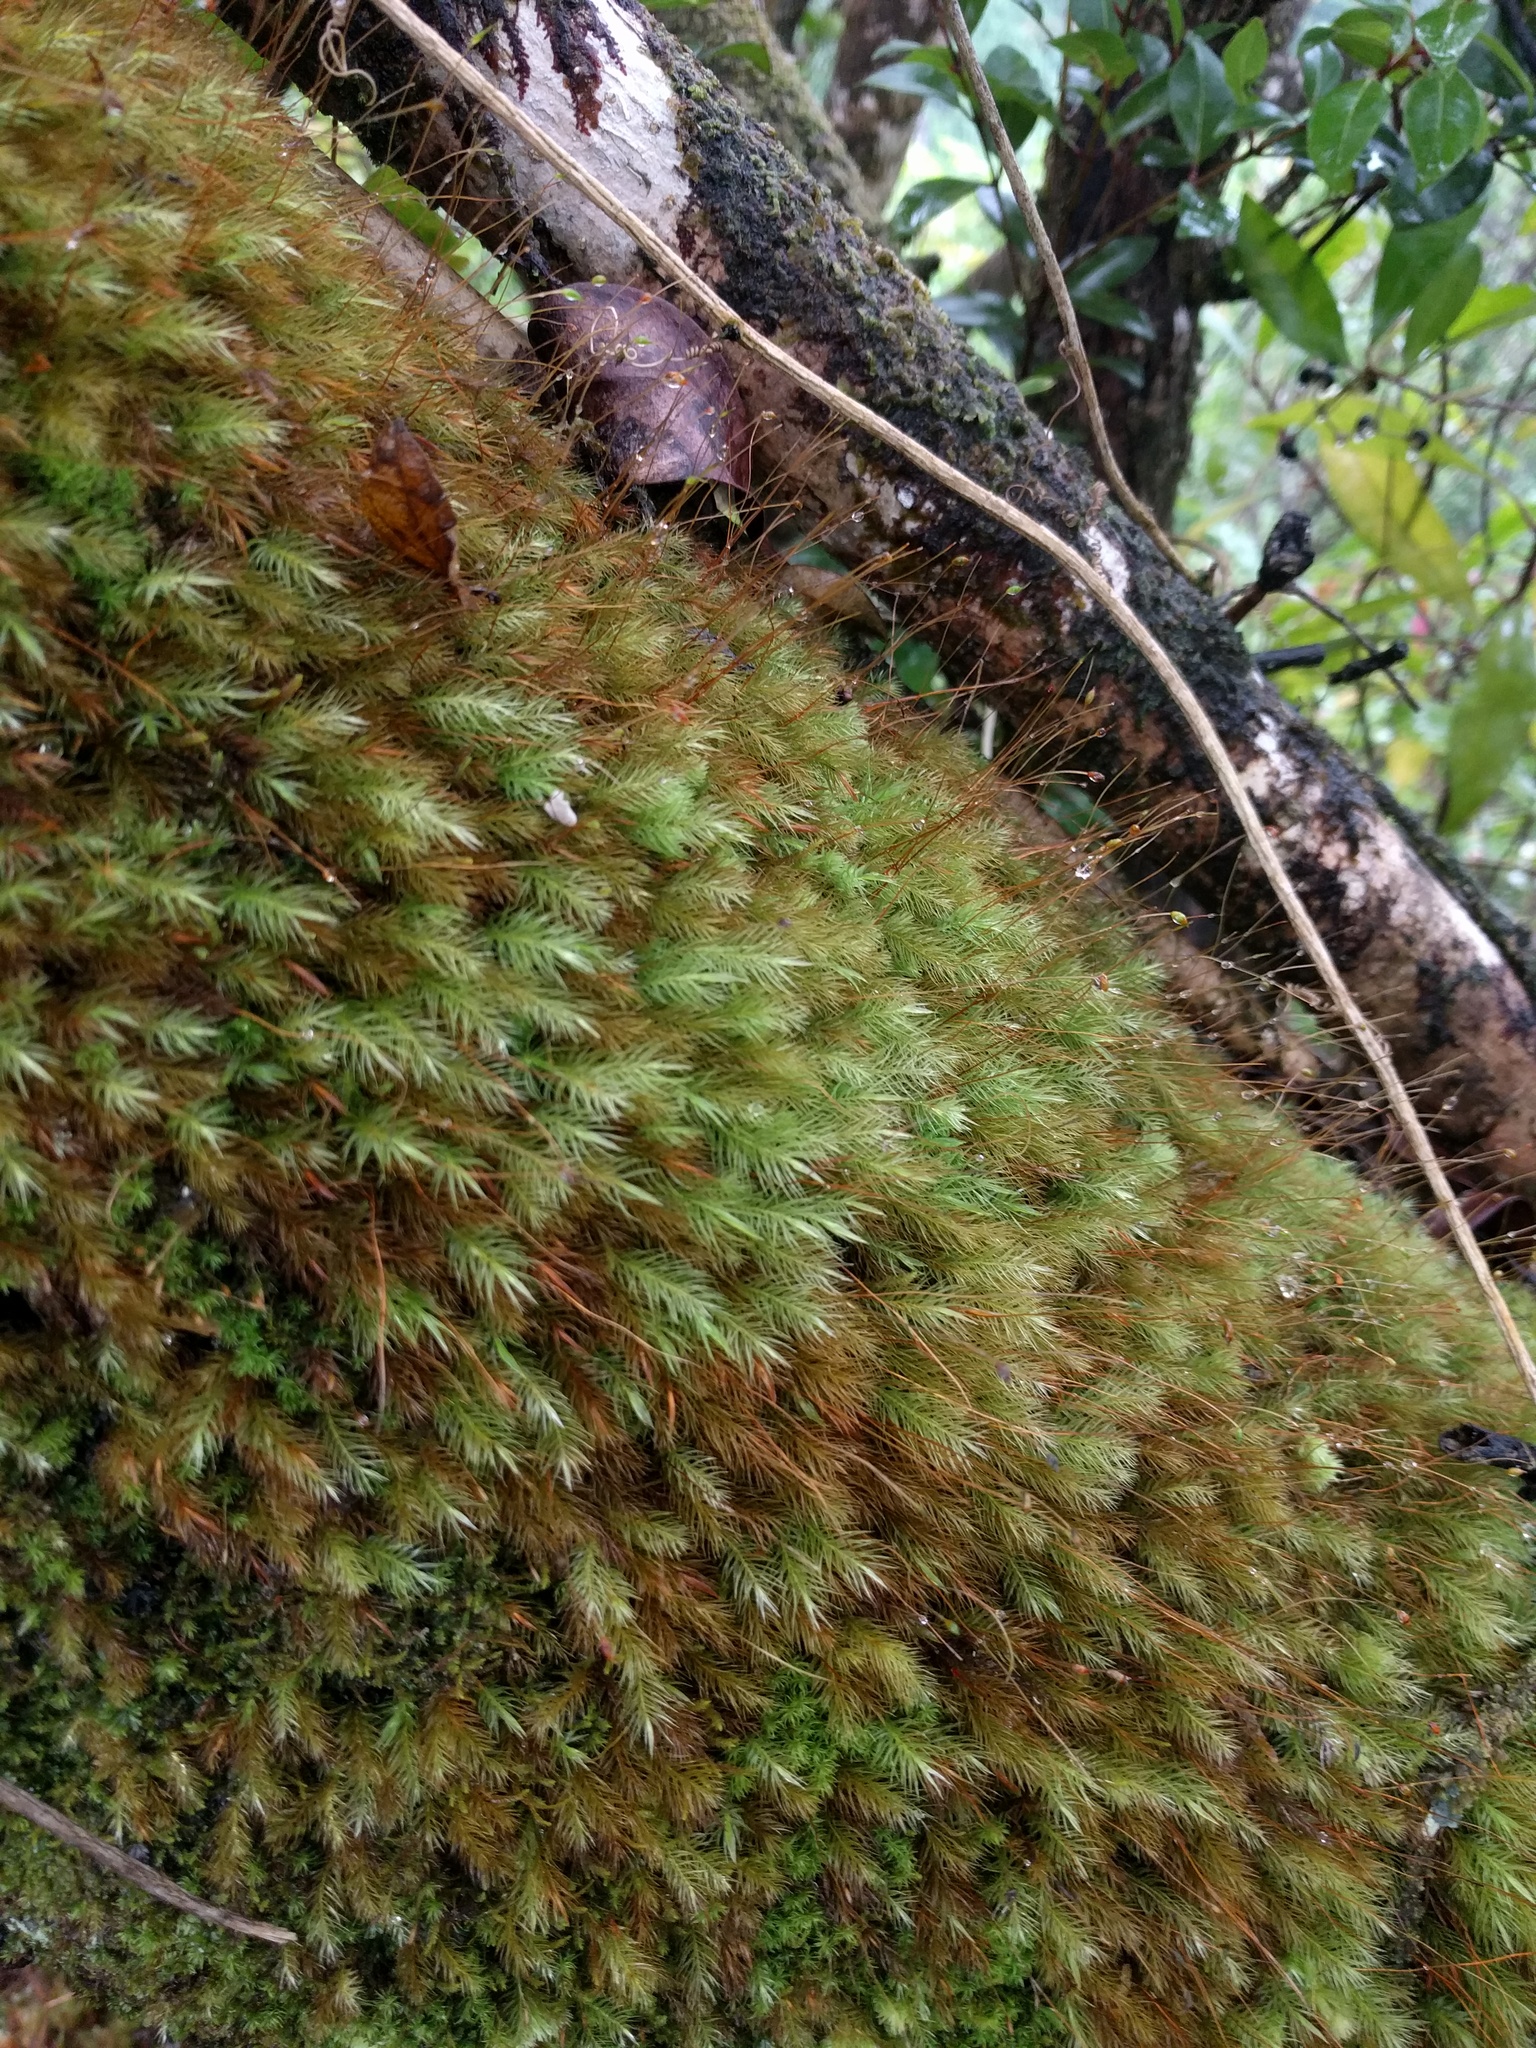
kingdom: Plantae
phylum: Bryophyta
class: Bryopsida
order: Rhizogoniales
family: Calomniaceae
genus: Pyrrhobryum
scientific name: Pyrrhobryum spiniforme
